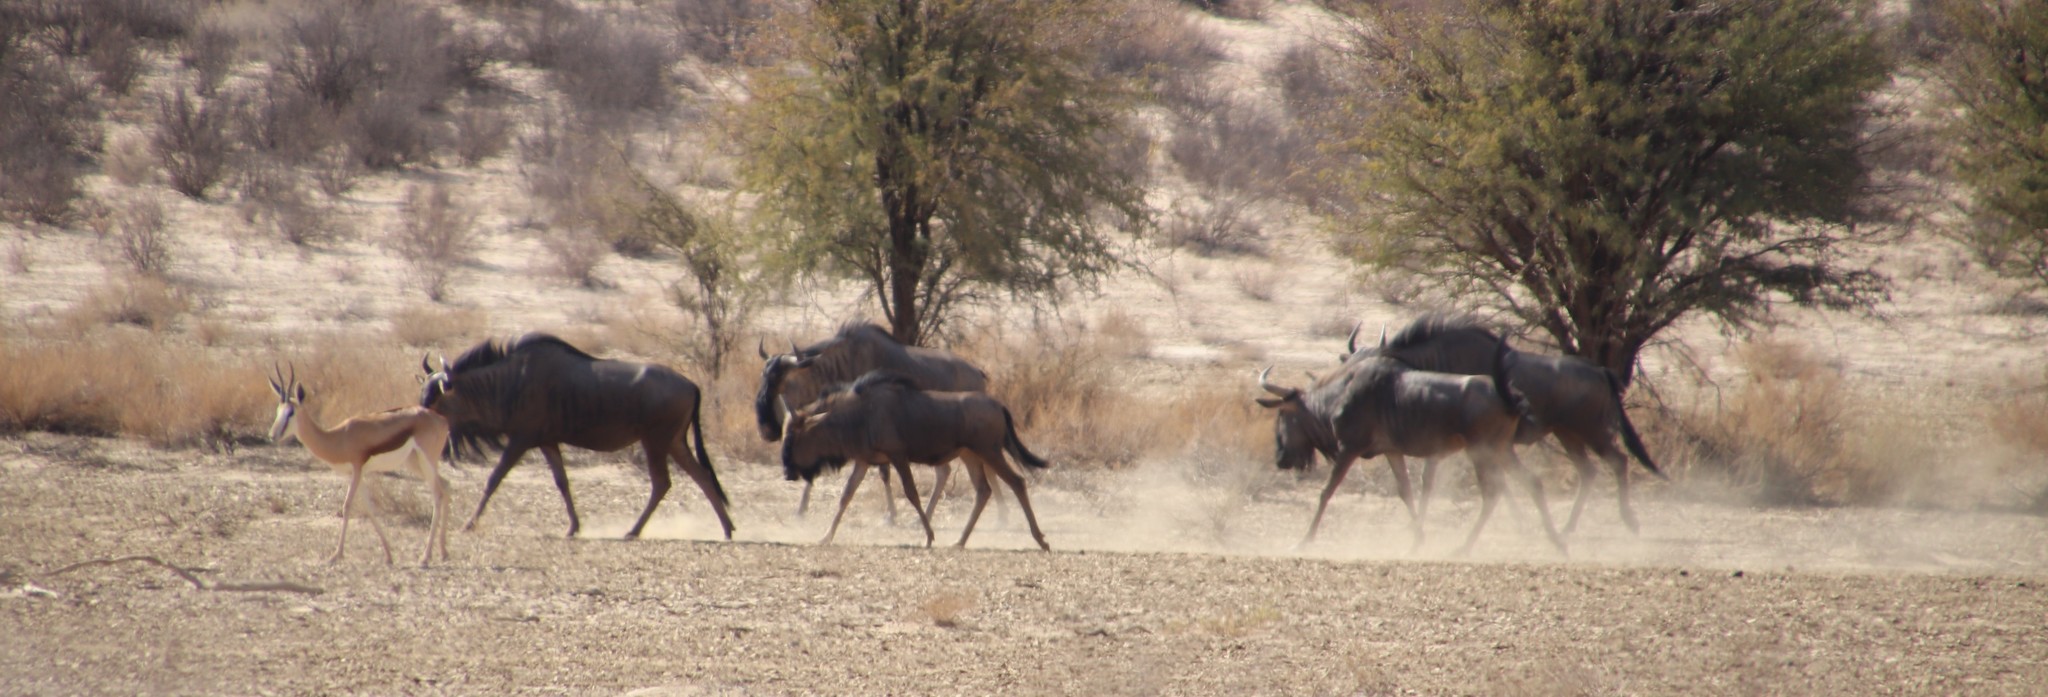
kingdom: Animalia
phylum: Chordata
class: Mammalia
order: Artiodactyla
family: Bovidae
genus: Connochaetes
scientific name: Connochaetes taurinus
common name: Blue wildebeest
